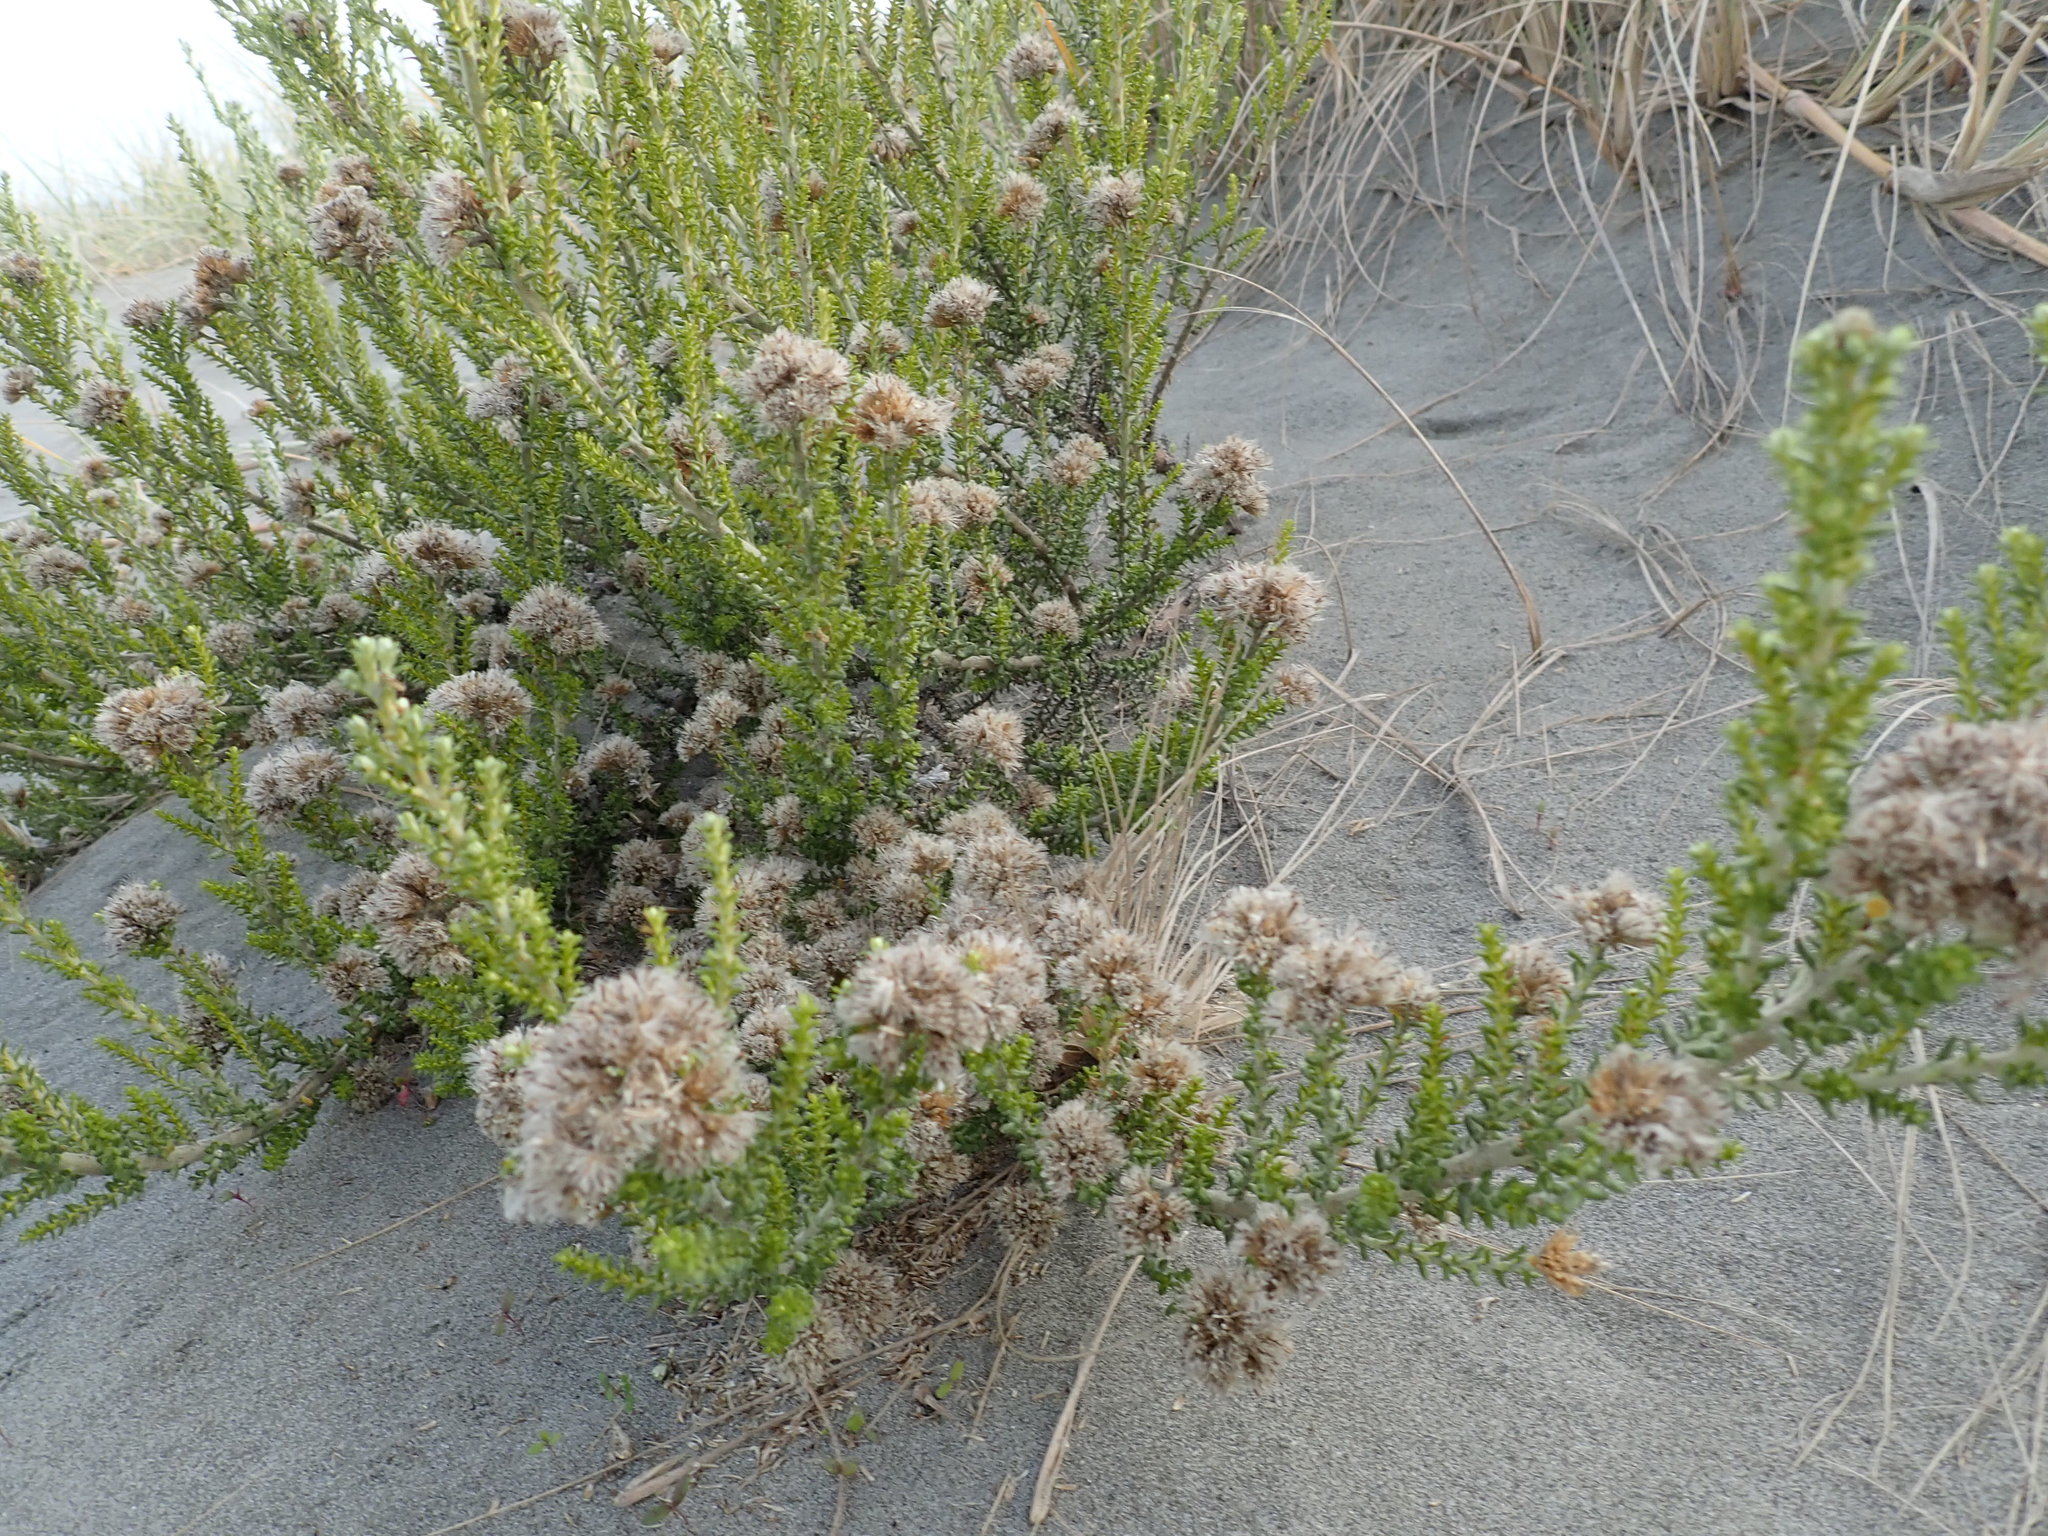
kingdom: Plantae
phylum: Tracheophyta
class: Magnoliopsida
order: Asterales
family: Asteraceae
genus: Ozothamnus
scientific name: Ozothamnus leptophyllus
